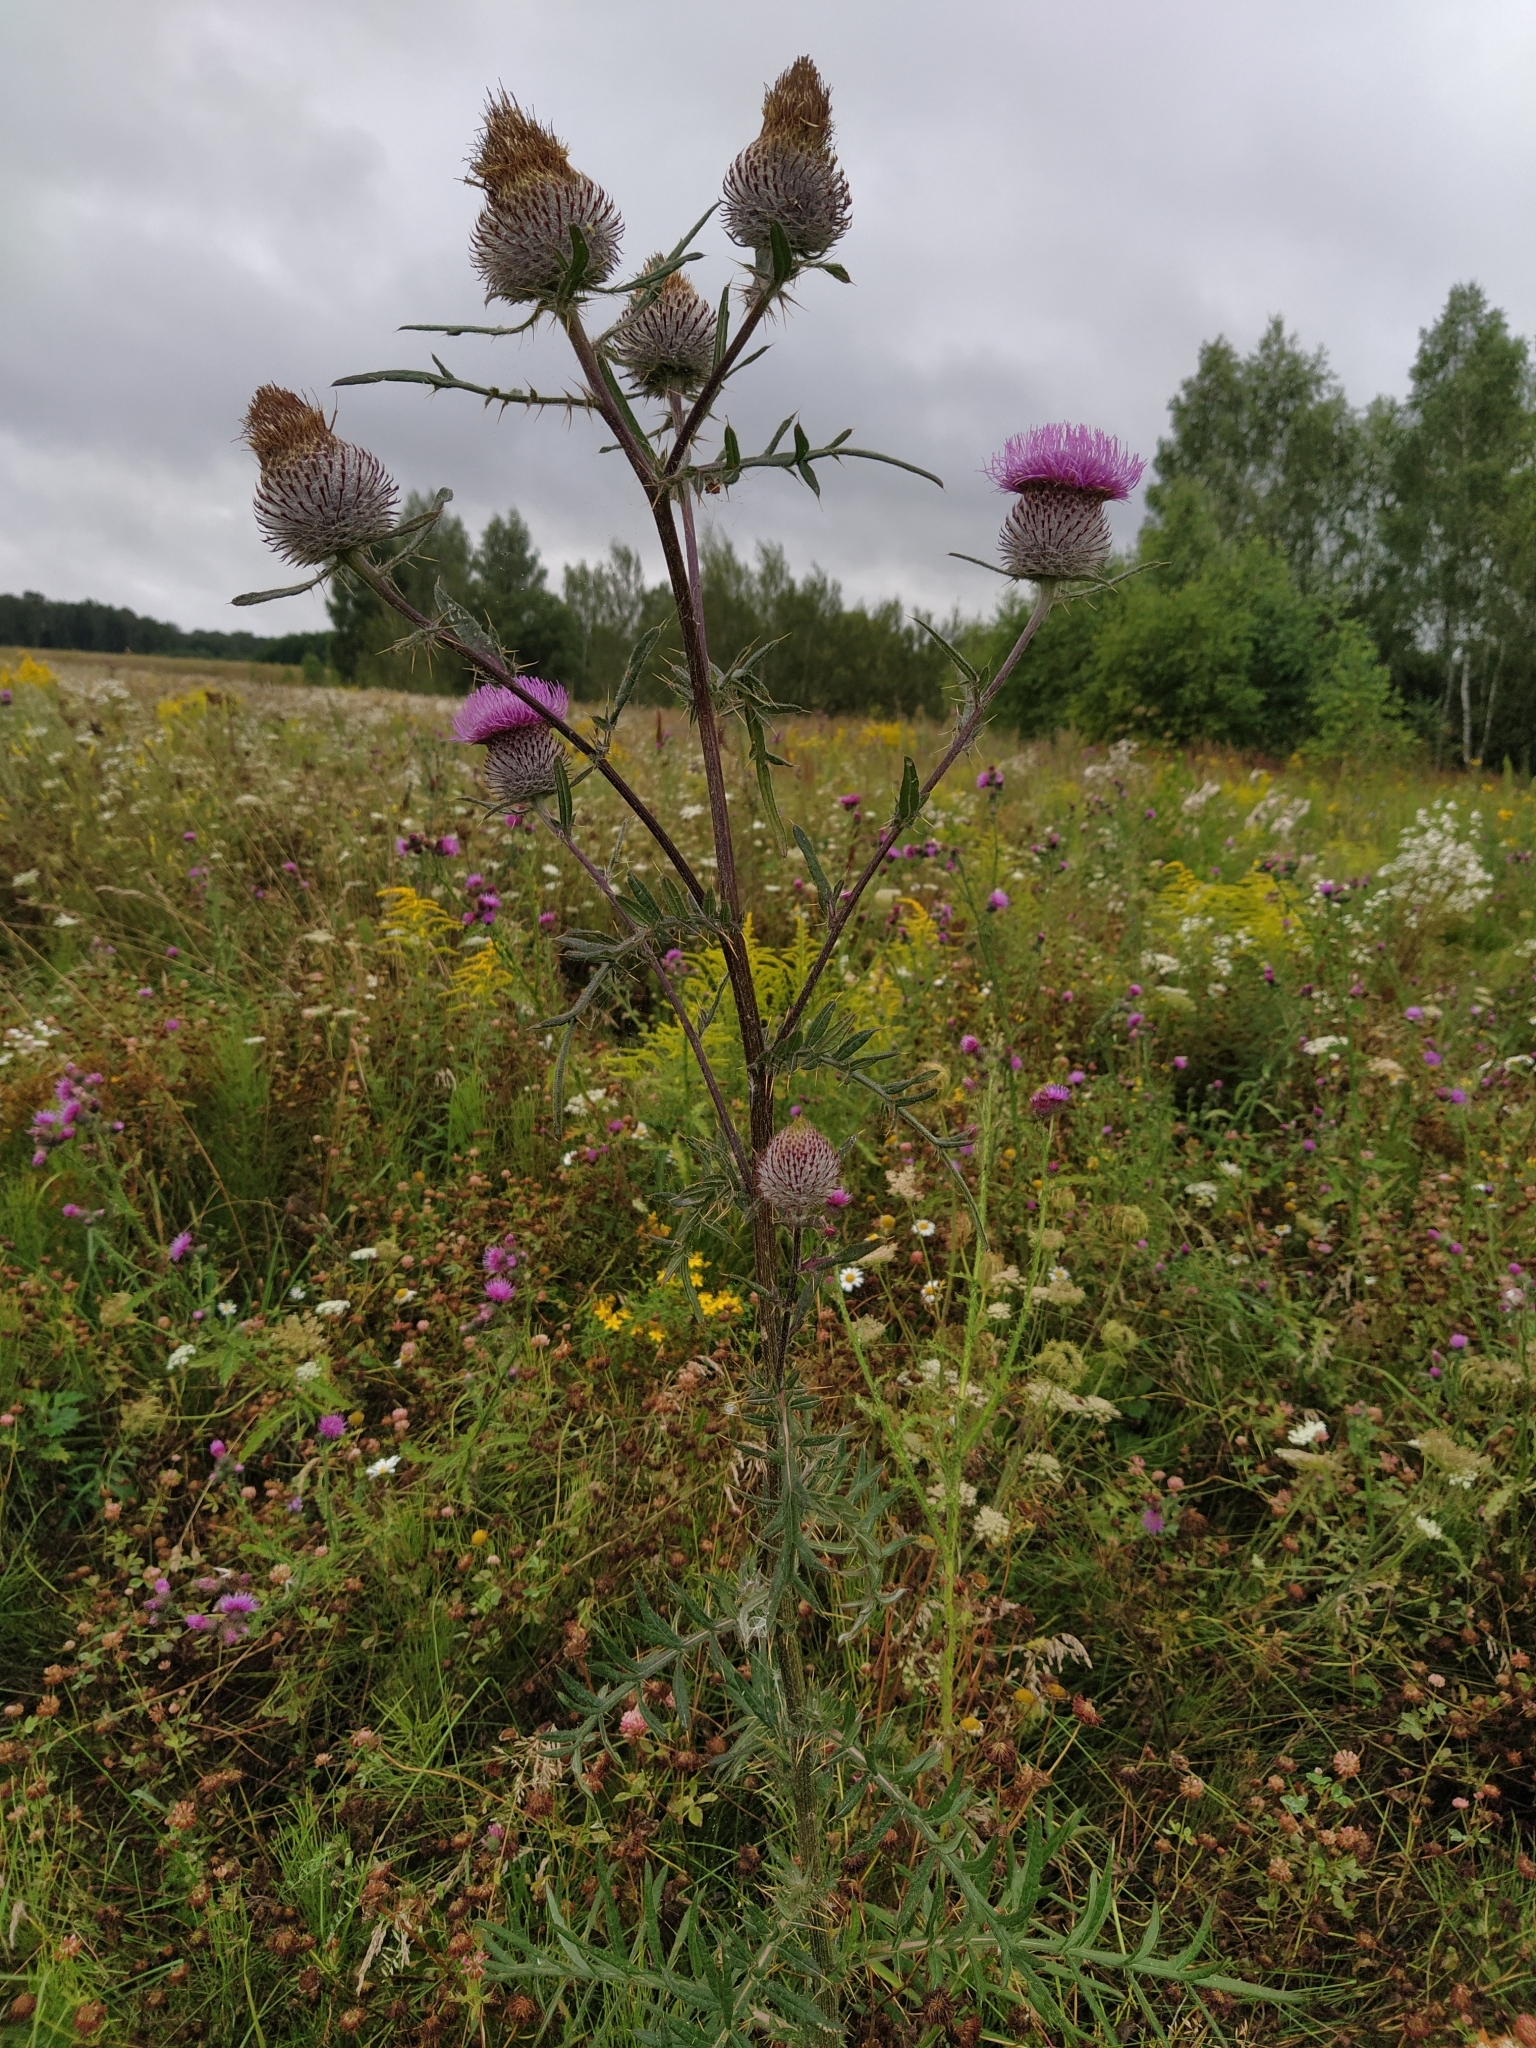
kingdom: Plantae
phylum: Tracheophyta
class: Magnoliopsida
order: Asterales
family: Asteraceae
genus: Lophiolepis
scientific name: Lophiolepis decussata
